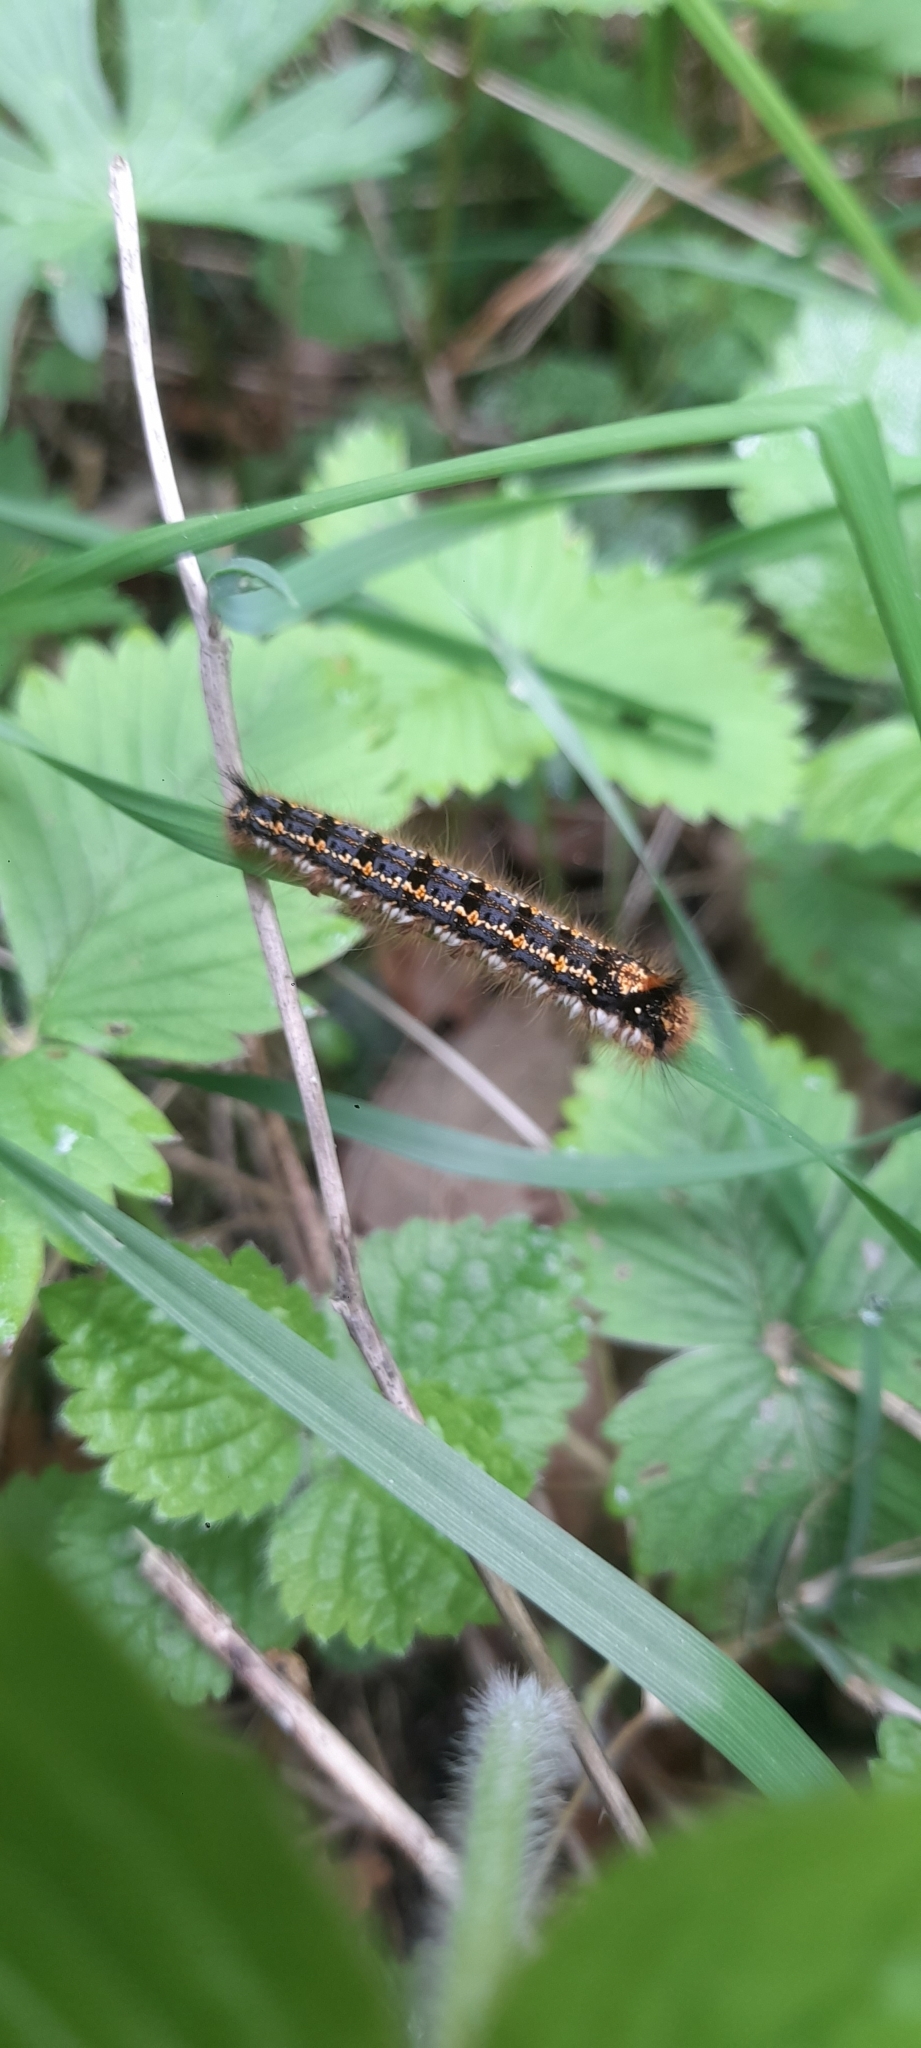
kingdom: Animalia
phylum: Arthropoda
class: Insecta
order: Lepidoptera
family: Lasiocampidae
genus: Euthrix
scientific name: Euthrix potatoria
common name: Drinker
